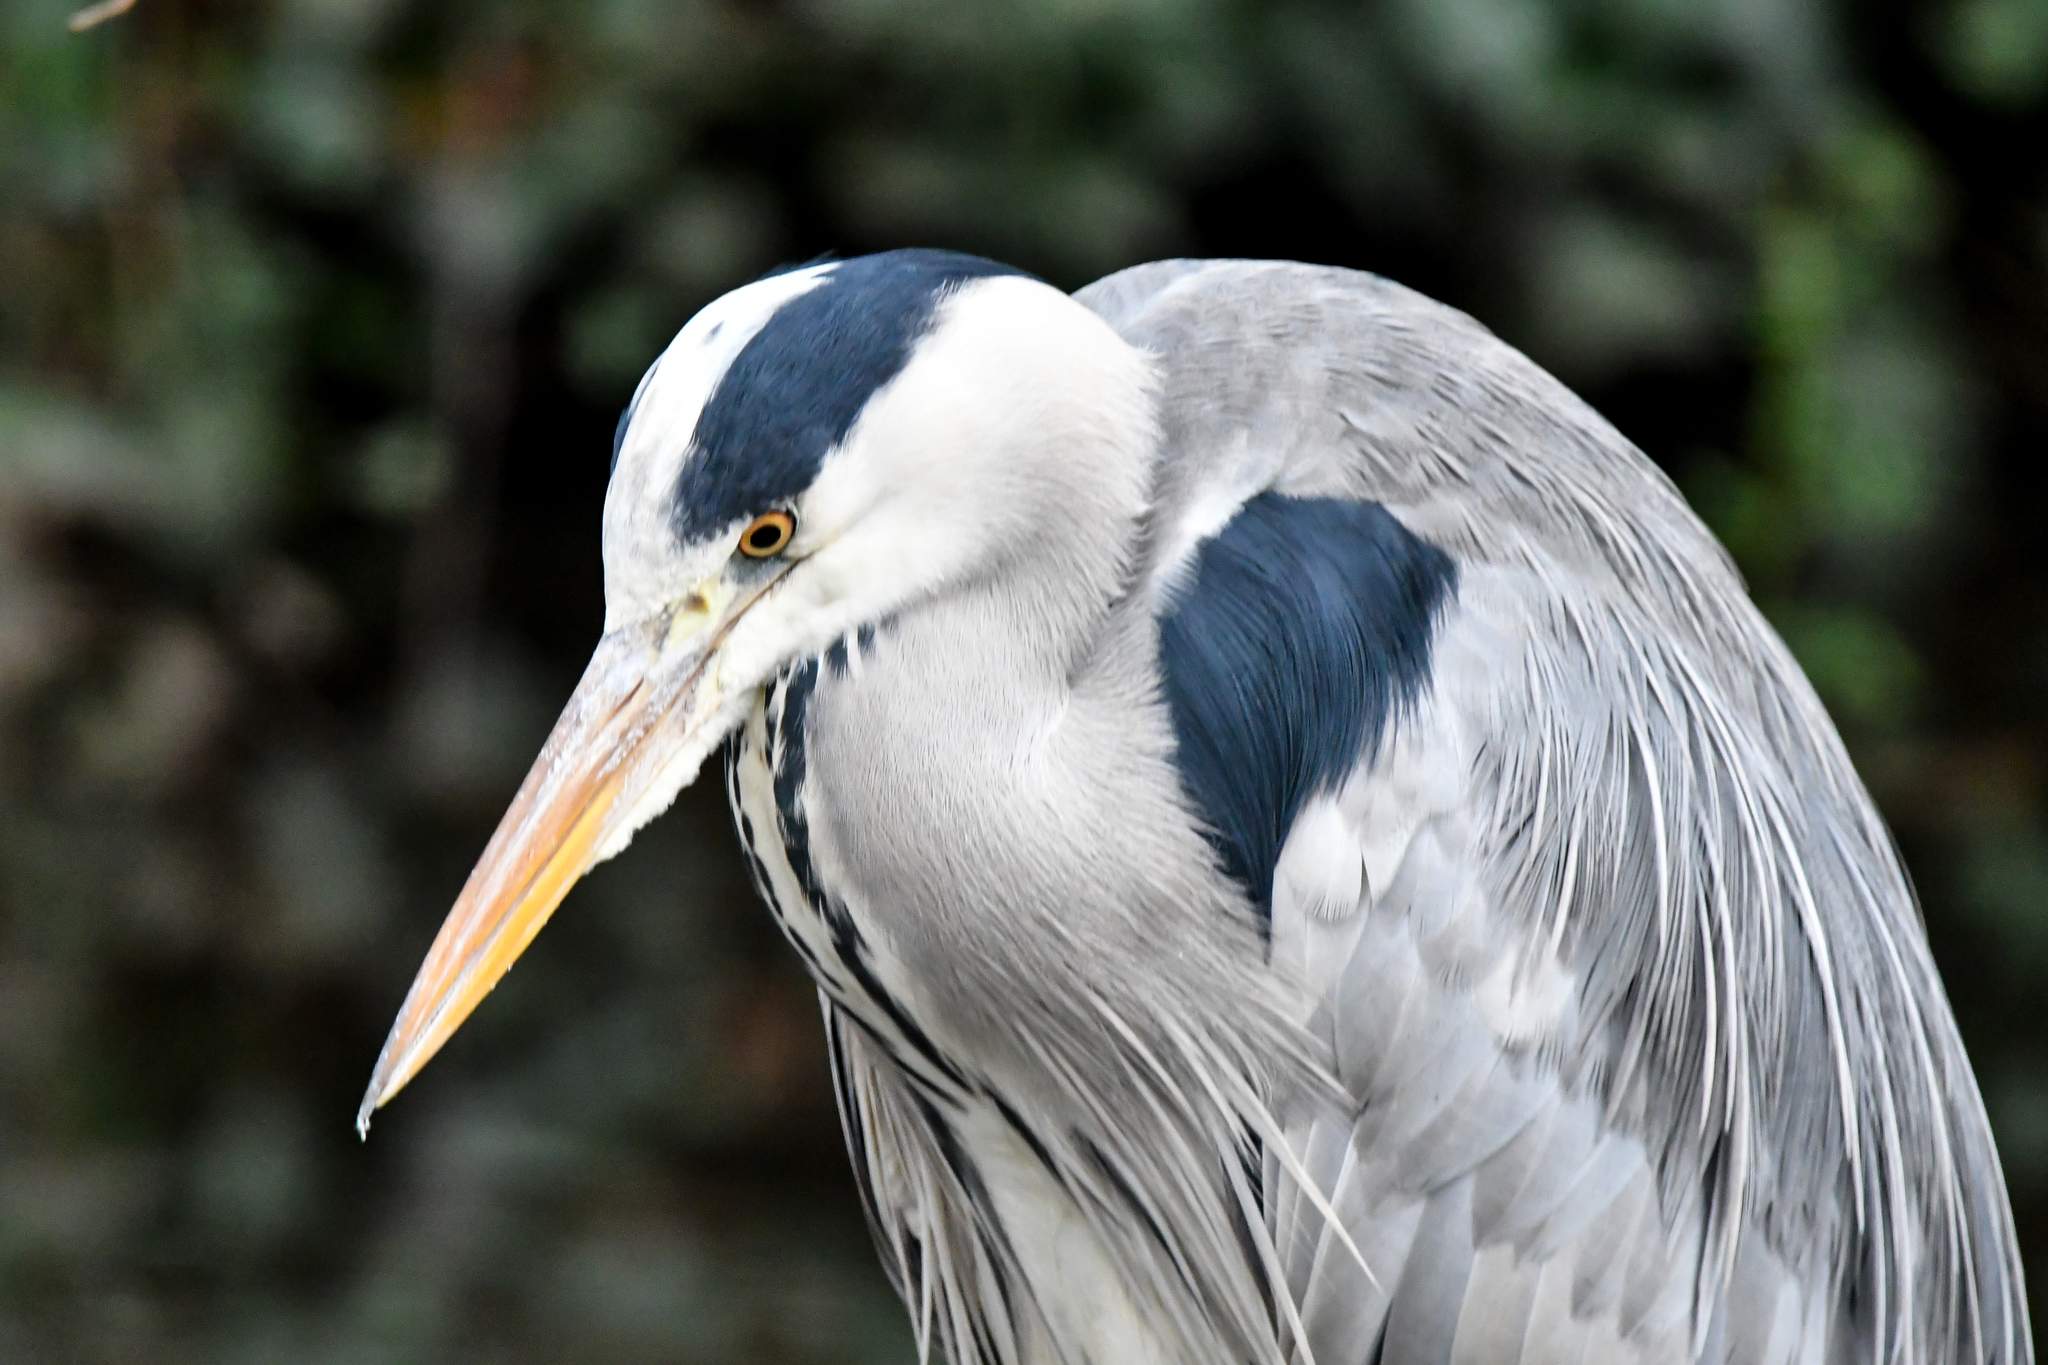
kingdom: Animalia
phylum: Chordata
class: Aves
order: Pelecaniformes
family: Ardeidae
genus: Ardea
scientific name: Ardea cinerea
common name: Grey heron
